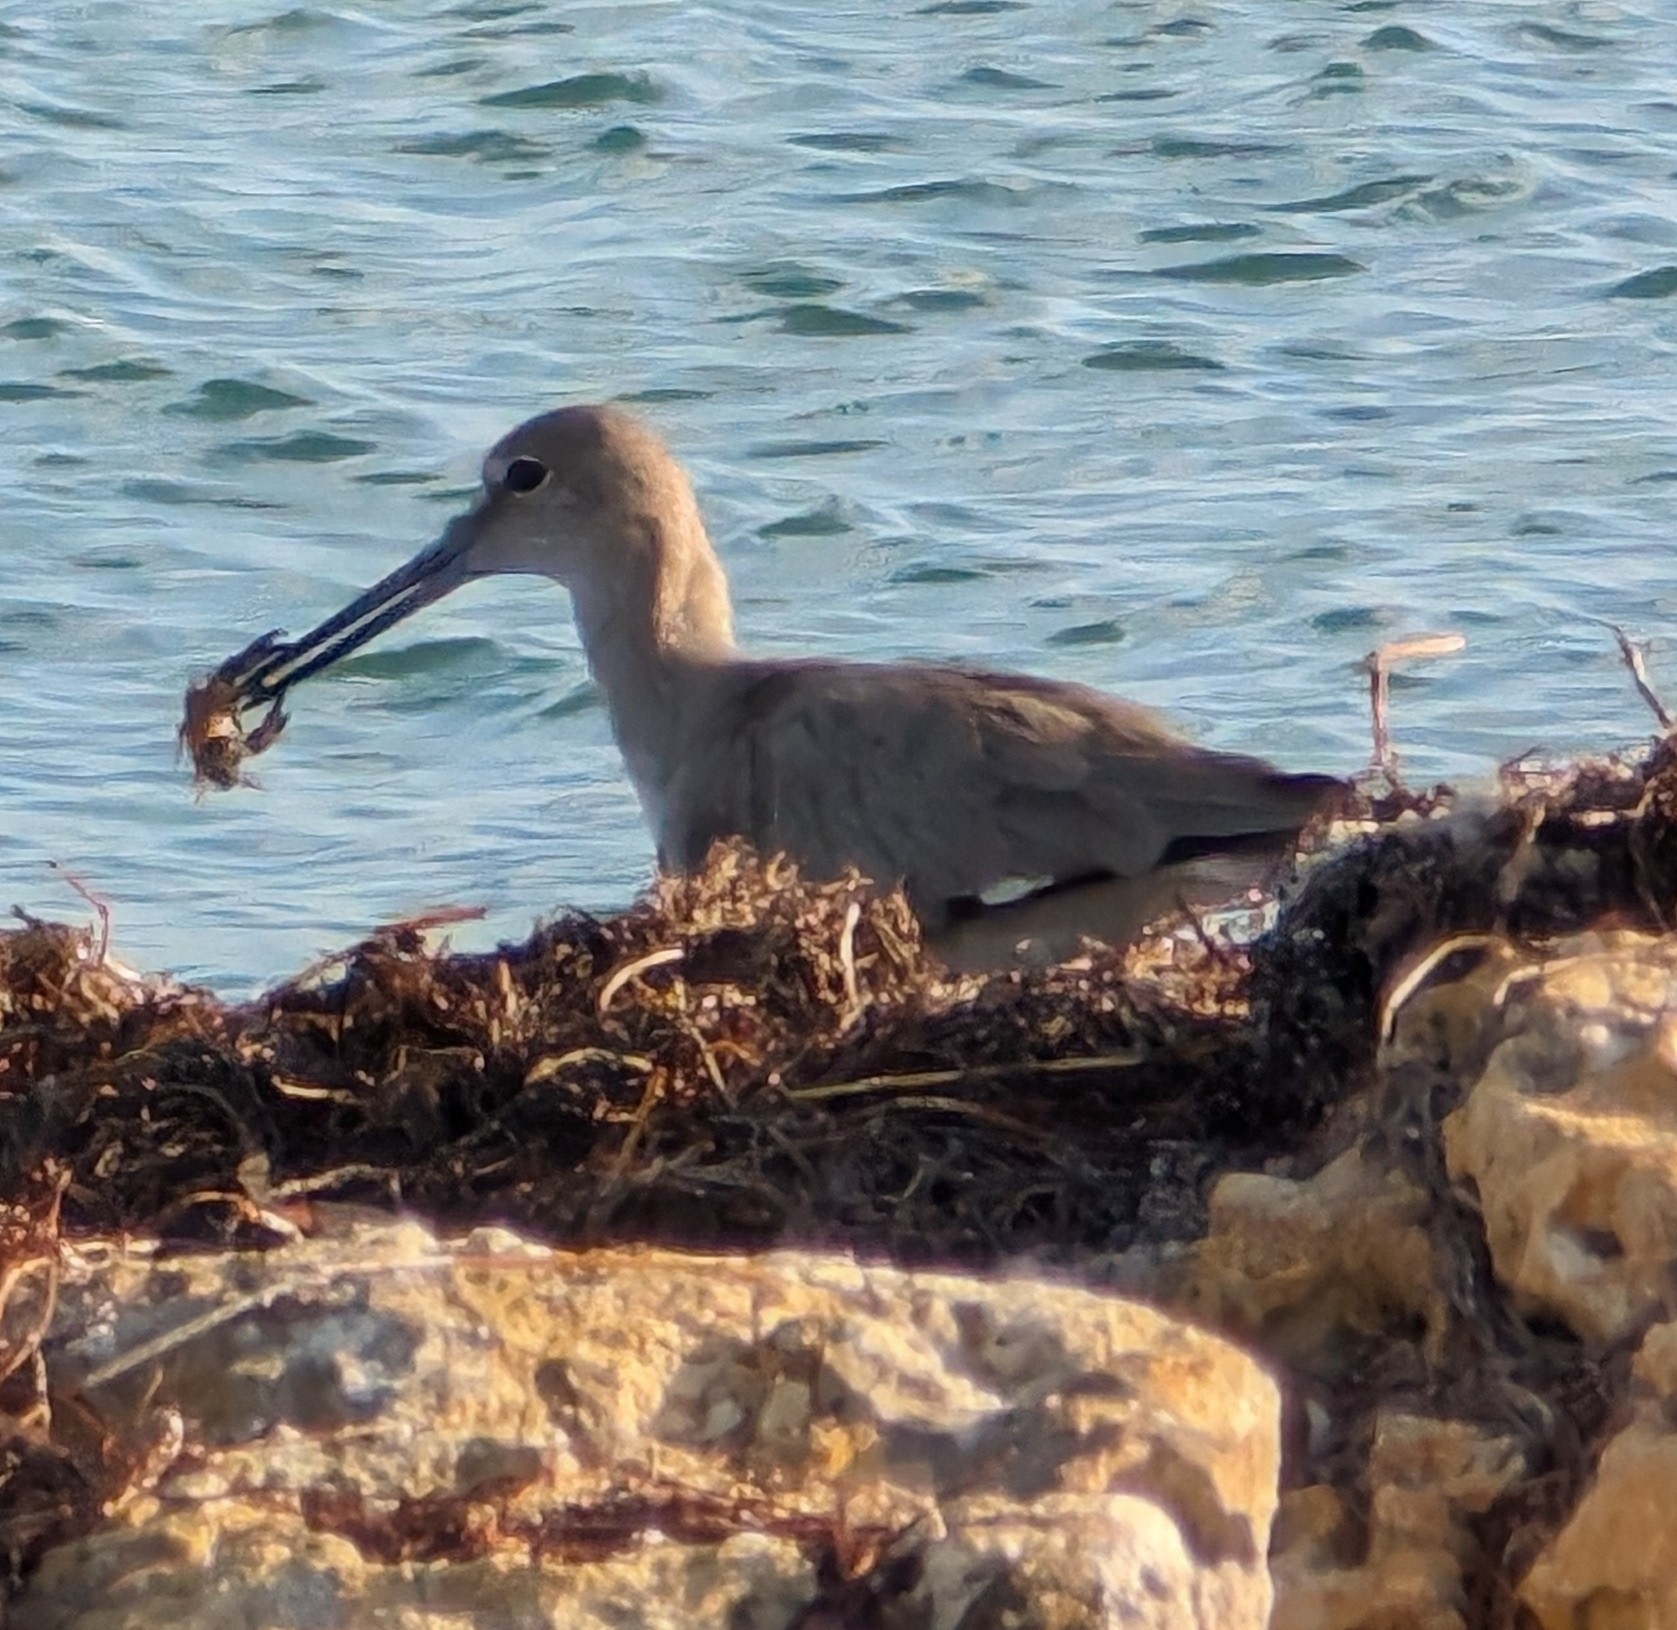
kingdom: Animalia
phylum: Chordata
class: Aves
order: Charadriiformes
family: Scolopacidae
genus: Tringa
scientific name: Tringa semipalmata
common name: Willet
